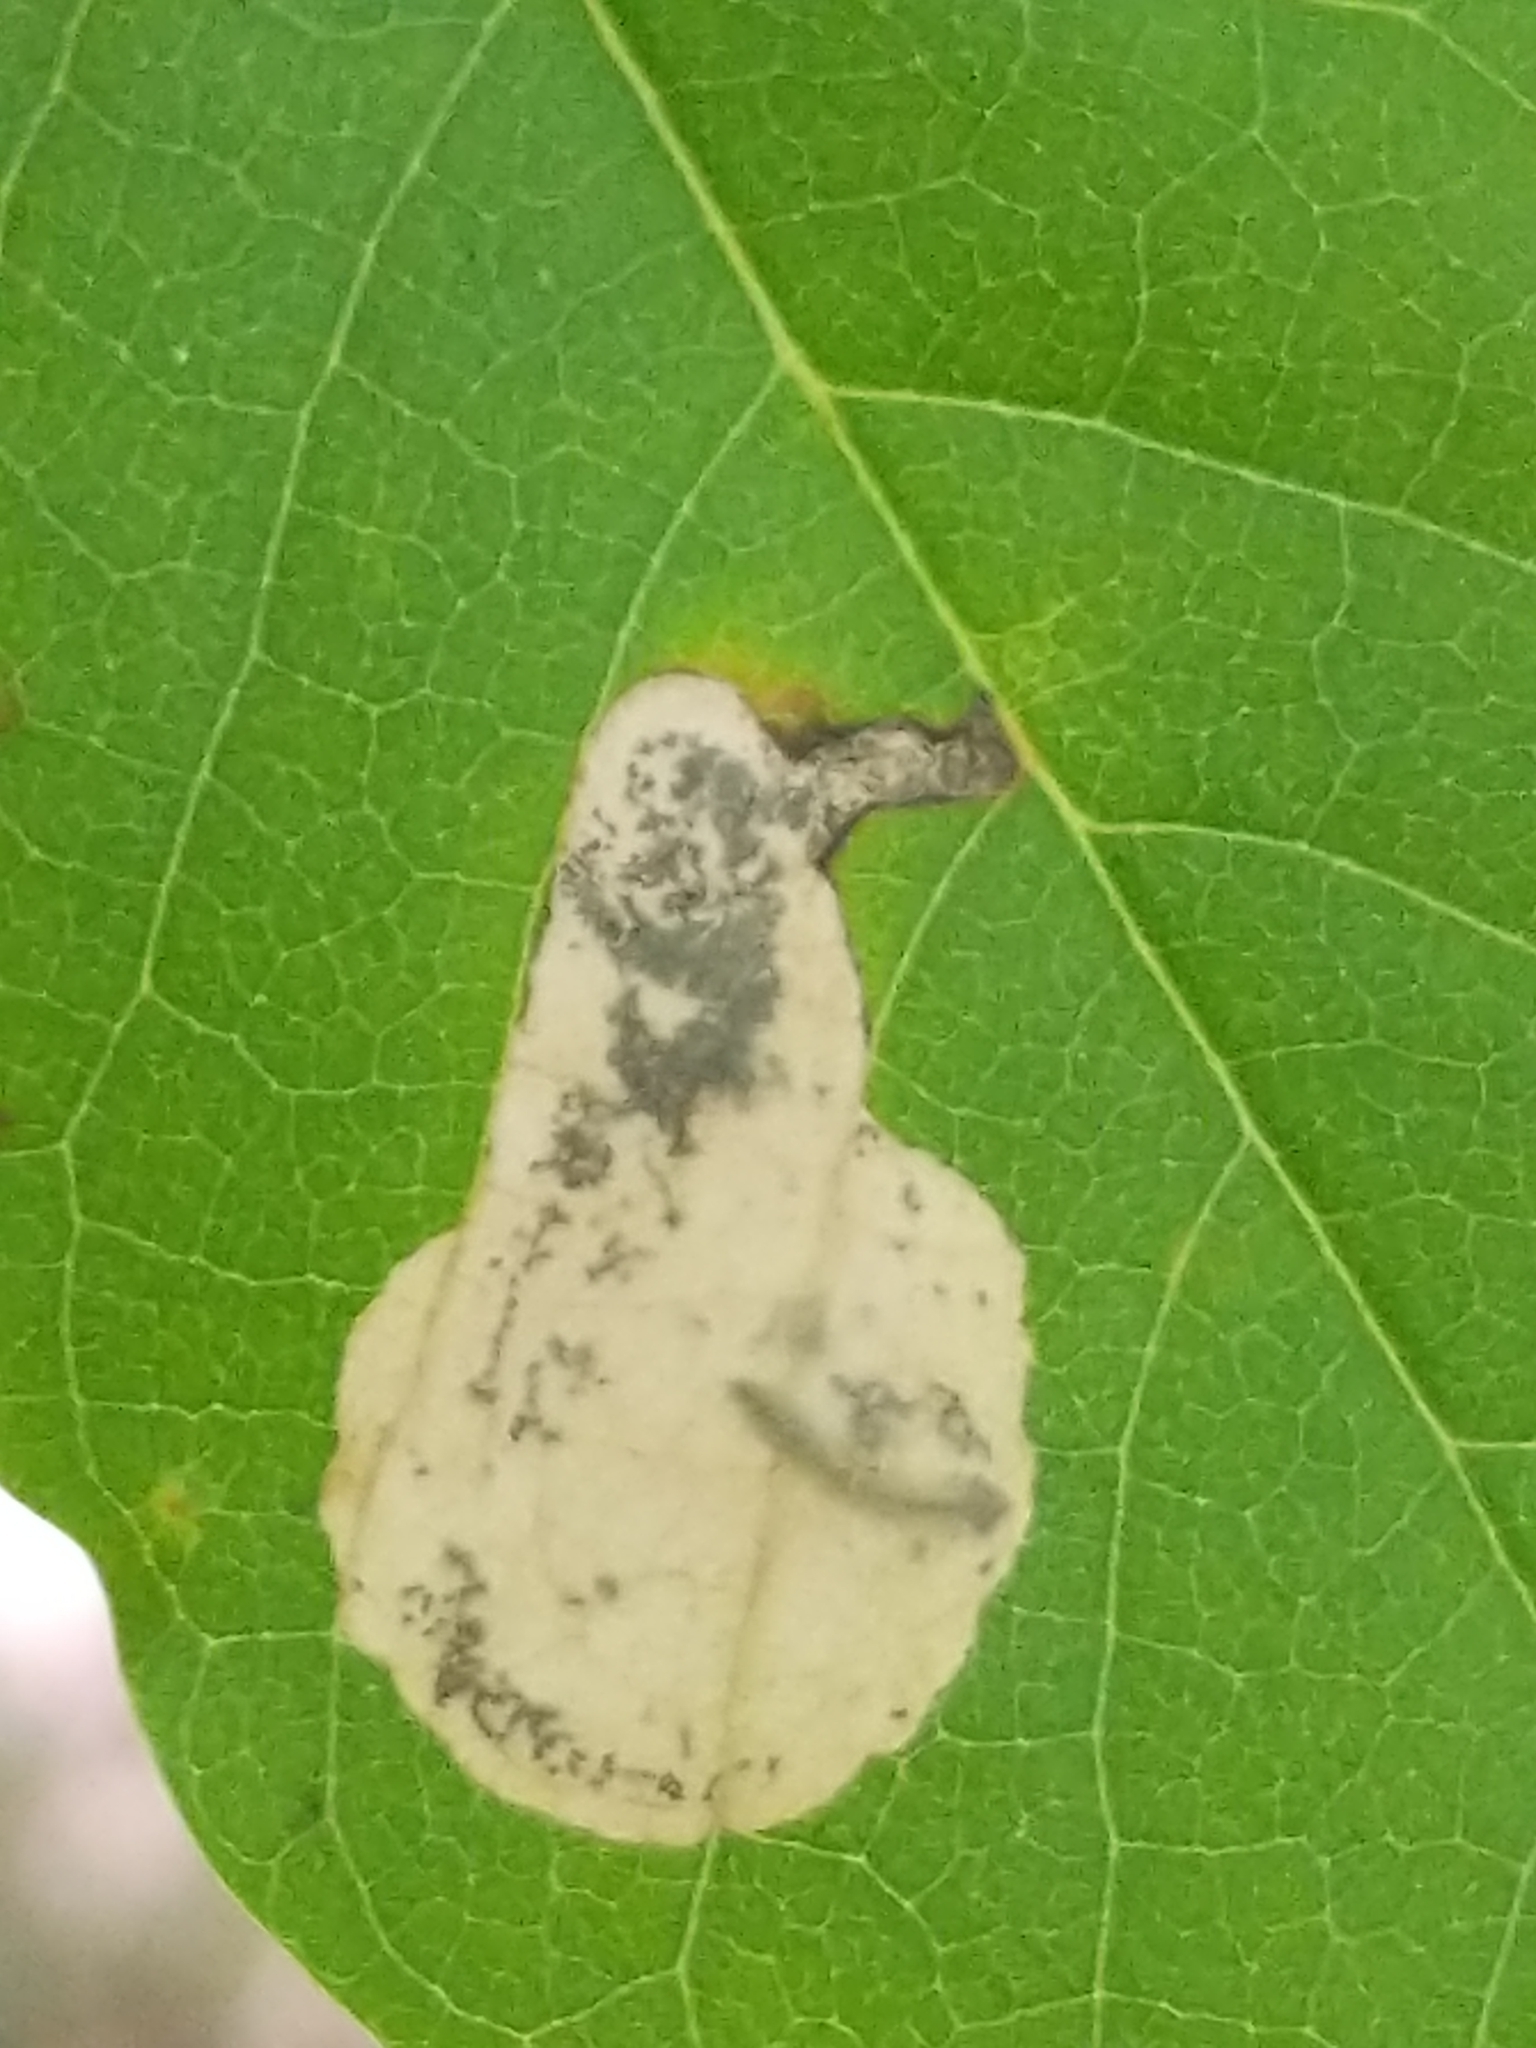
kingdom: Animalia
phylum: Arthropoda
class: Insecta
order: Lepidoptera
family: Heliozelidae
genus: Antispila
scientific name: Antispila nyssaefoliella
